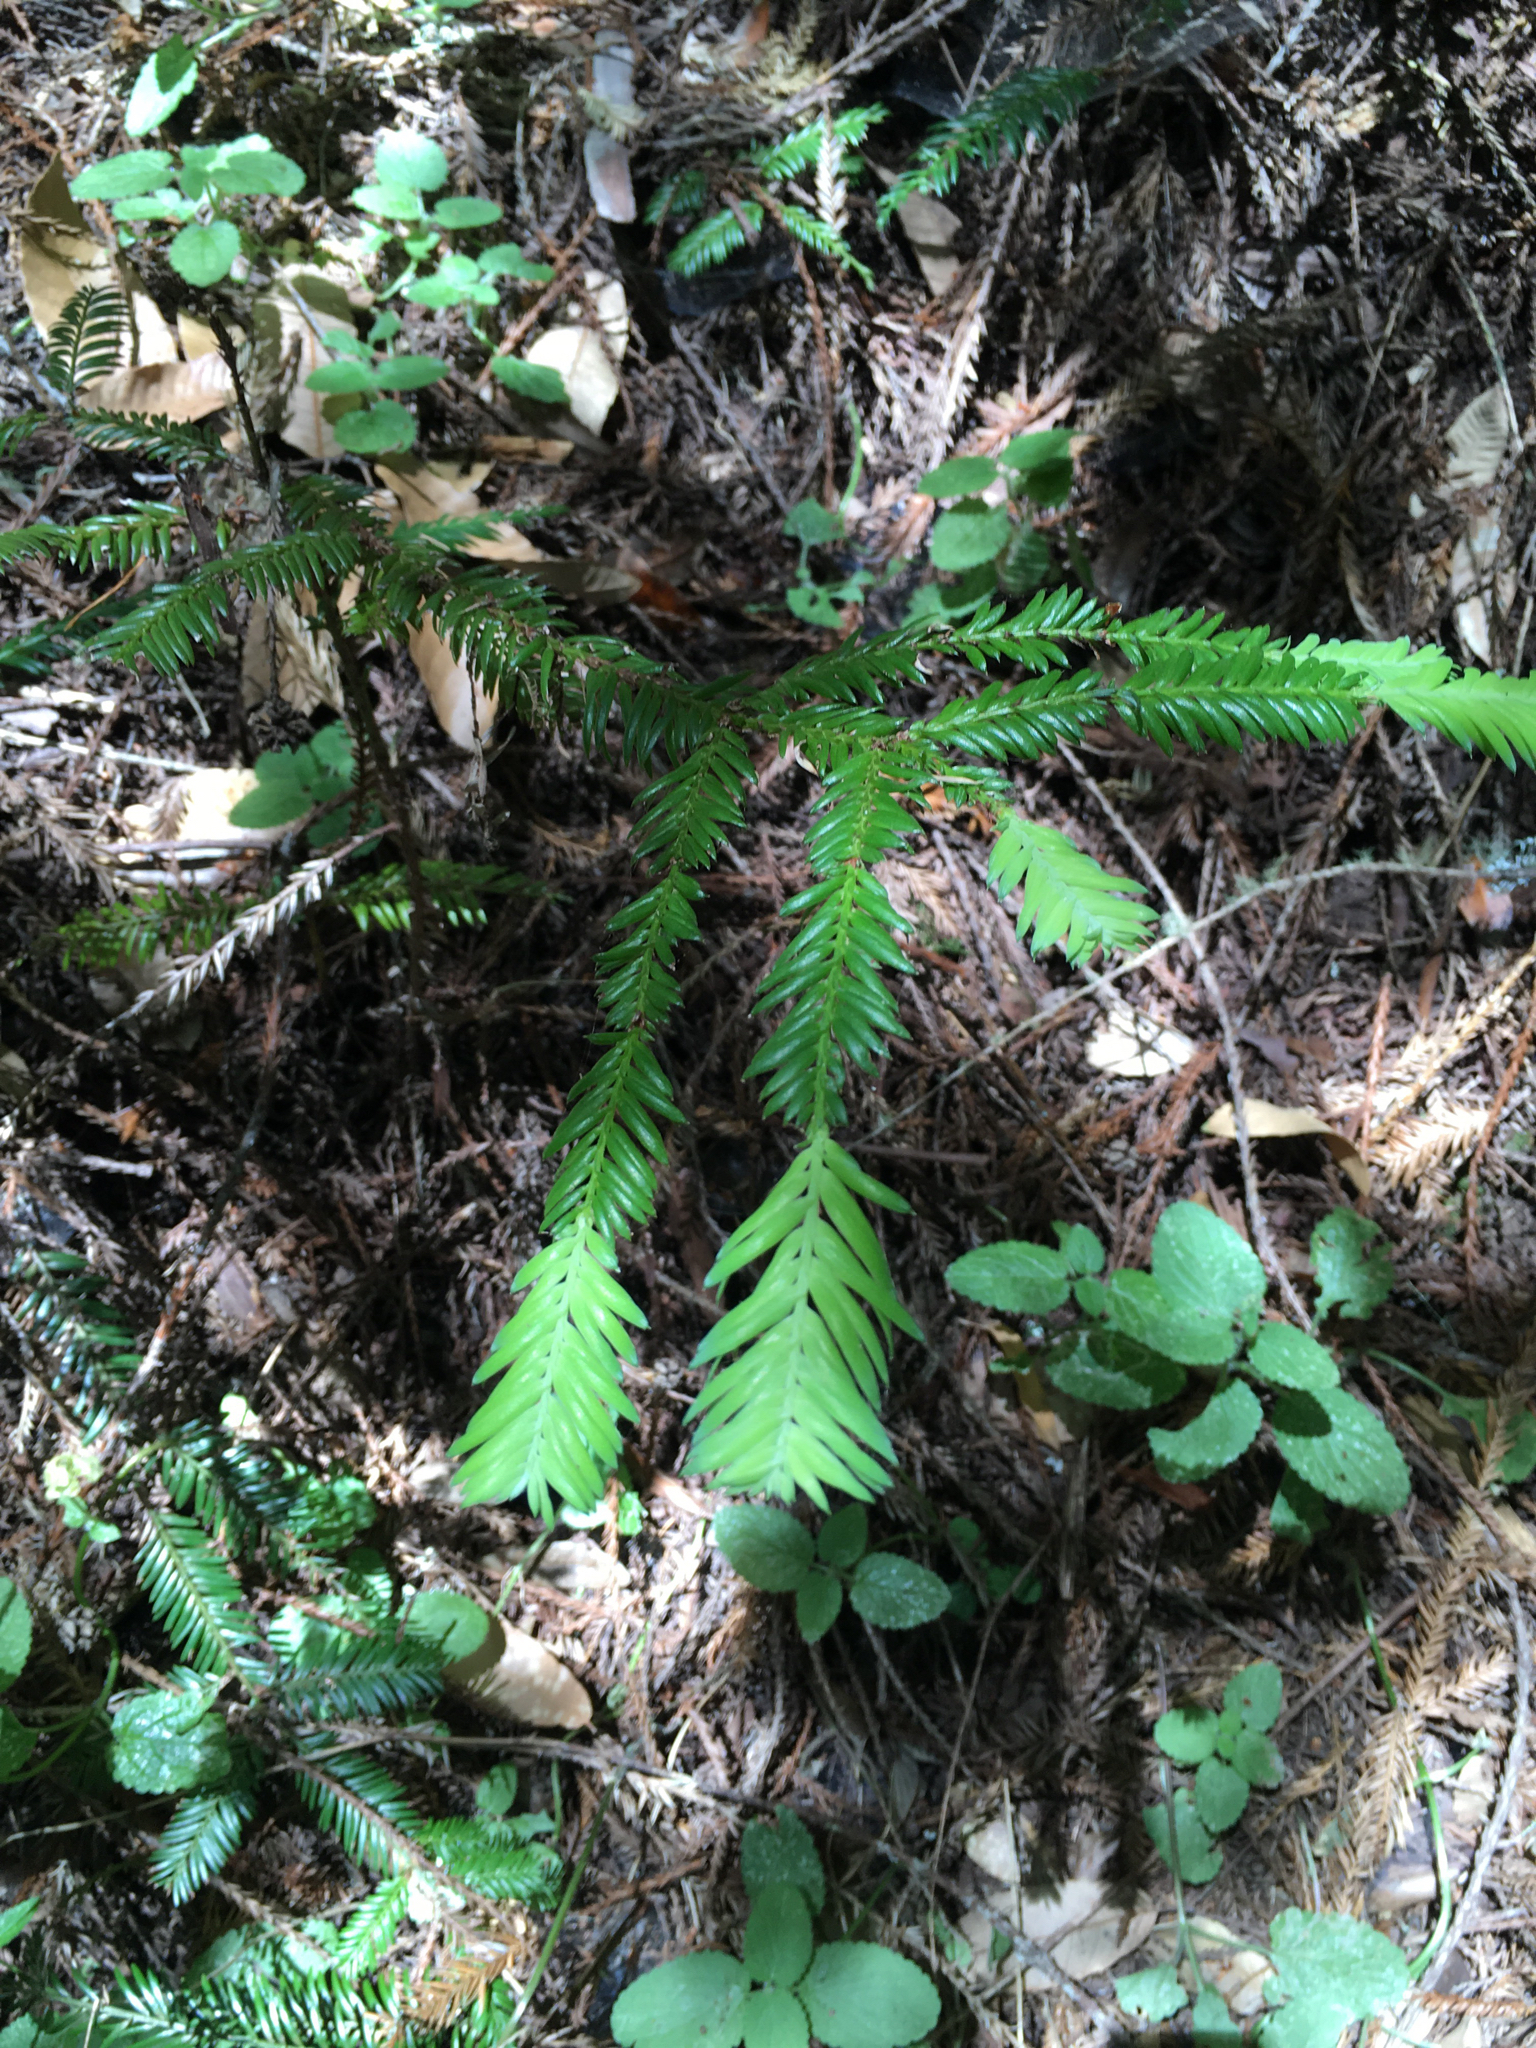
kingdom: Plantae
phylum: Tracheophyta
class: Pinopsida
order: Pinales
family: Cupressaceae
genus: Sequoia
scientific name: Sequoia sempervirens
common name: Coast redwood
